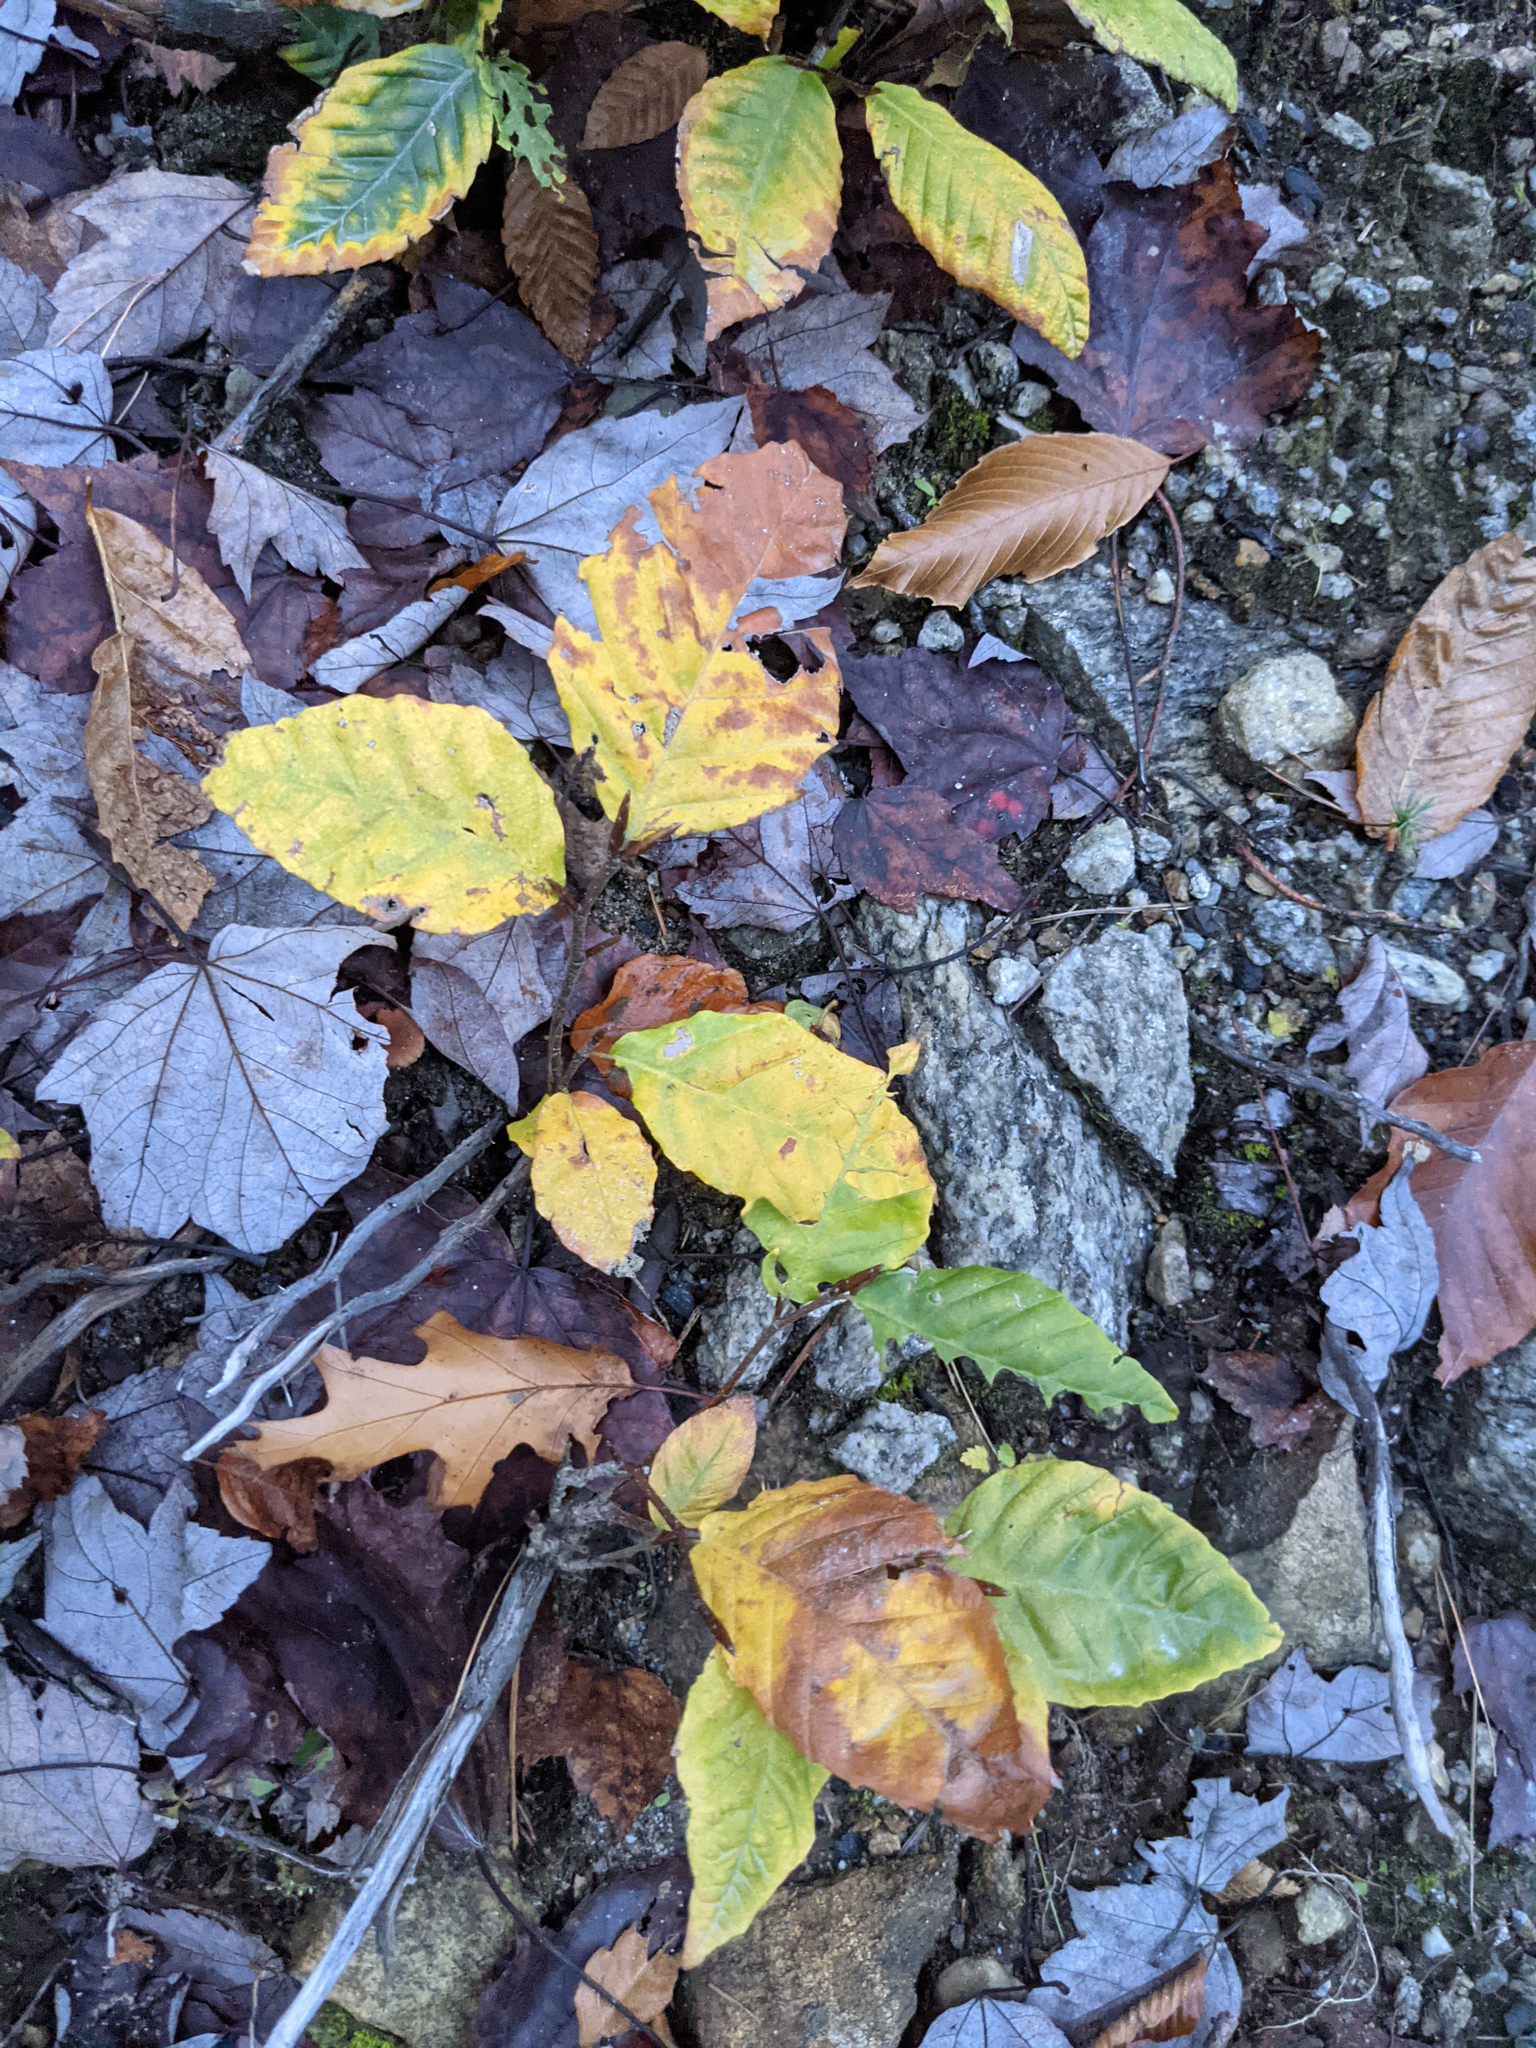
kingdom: Plantae
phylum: Tracheophyta
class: Magnoliopsida
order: Fagales
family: Fagaceae
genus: Fagus
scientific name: Fagus grandifolia
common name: American beech
